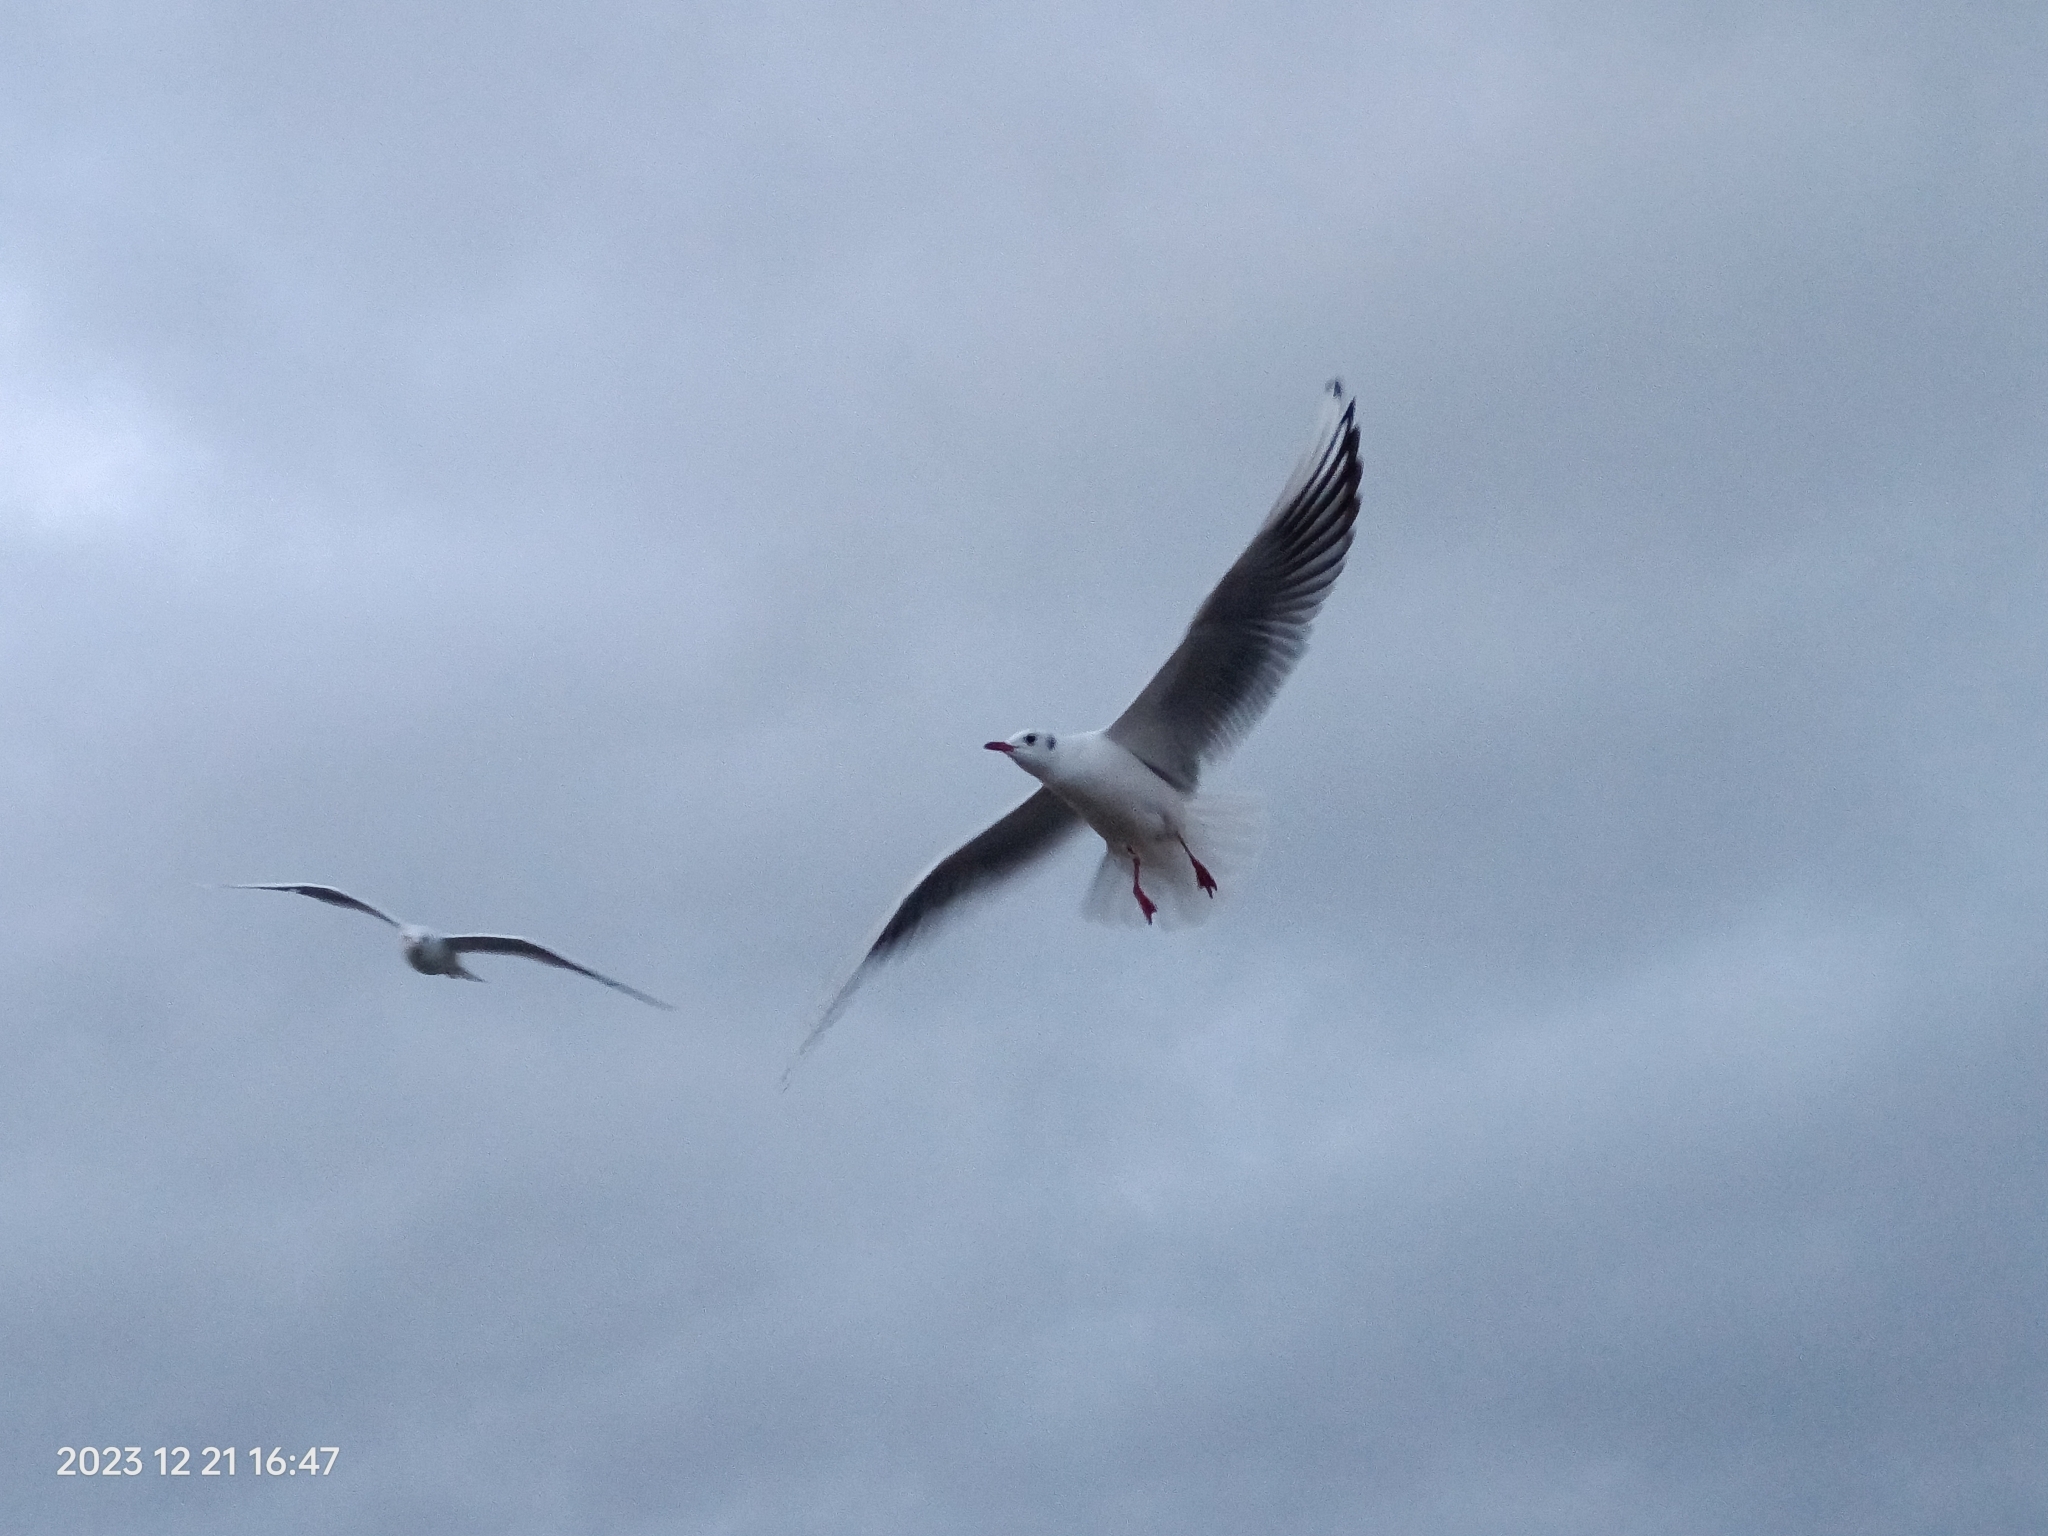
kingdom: Animalia
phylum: Chordata
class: Aves
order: Charadriiformes
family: Laridae
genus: Chroicocephalus
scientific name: Chroicocephalus ridibundus
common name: Black-headed gull
